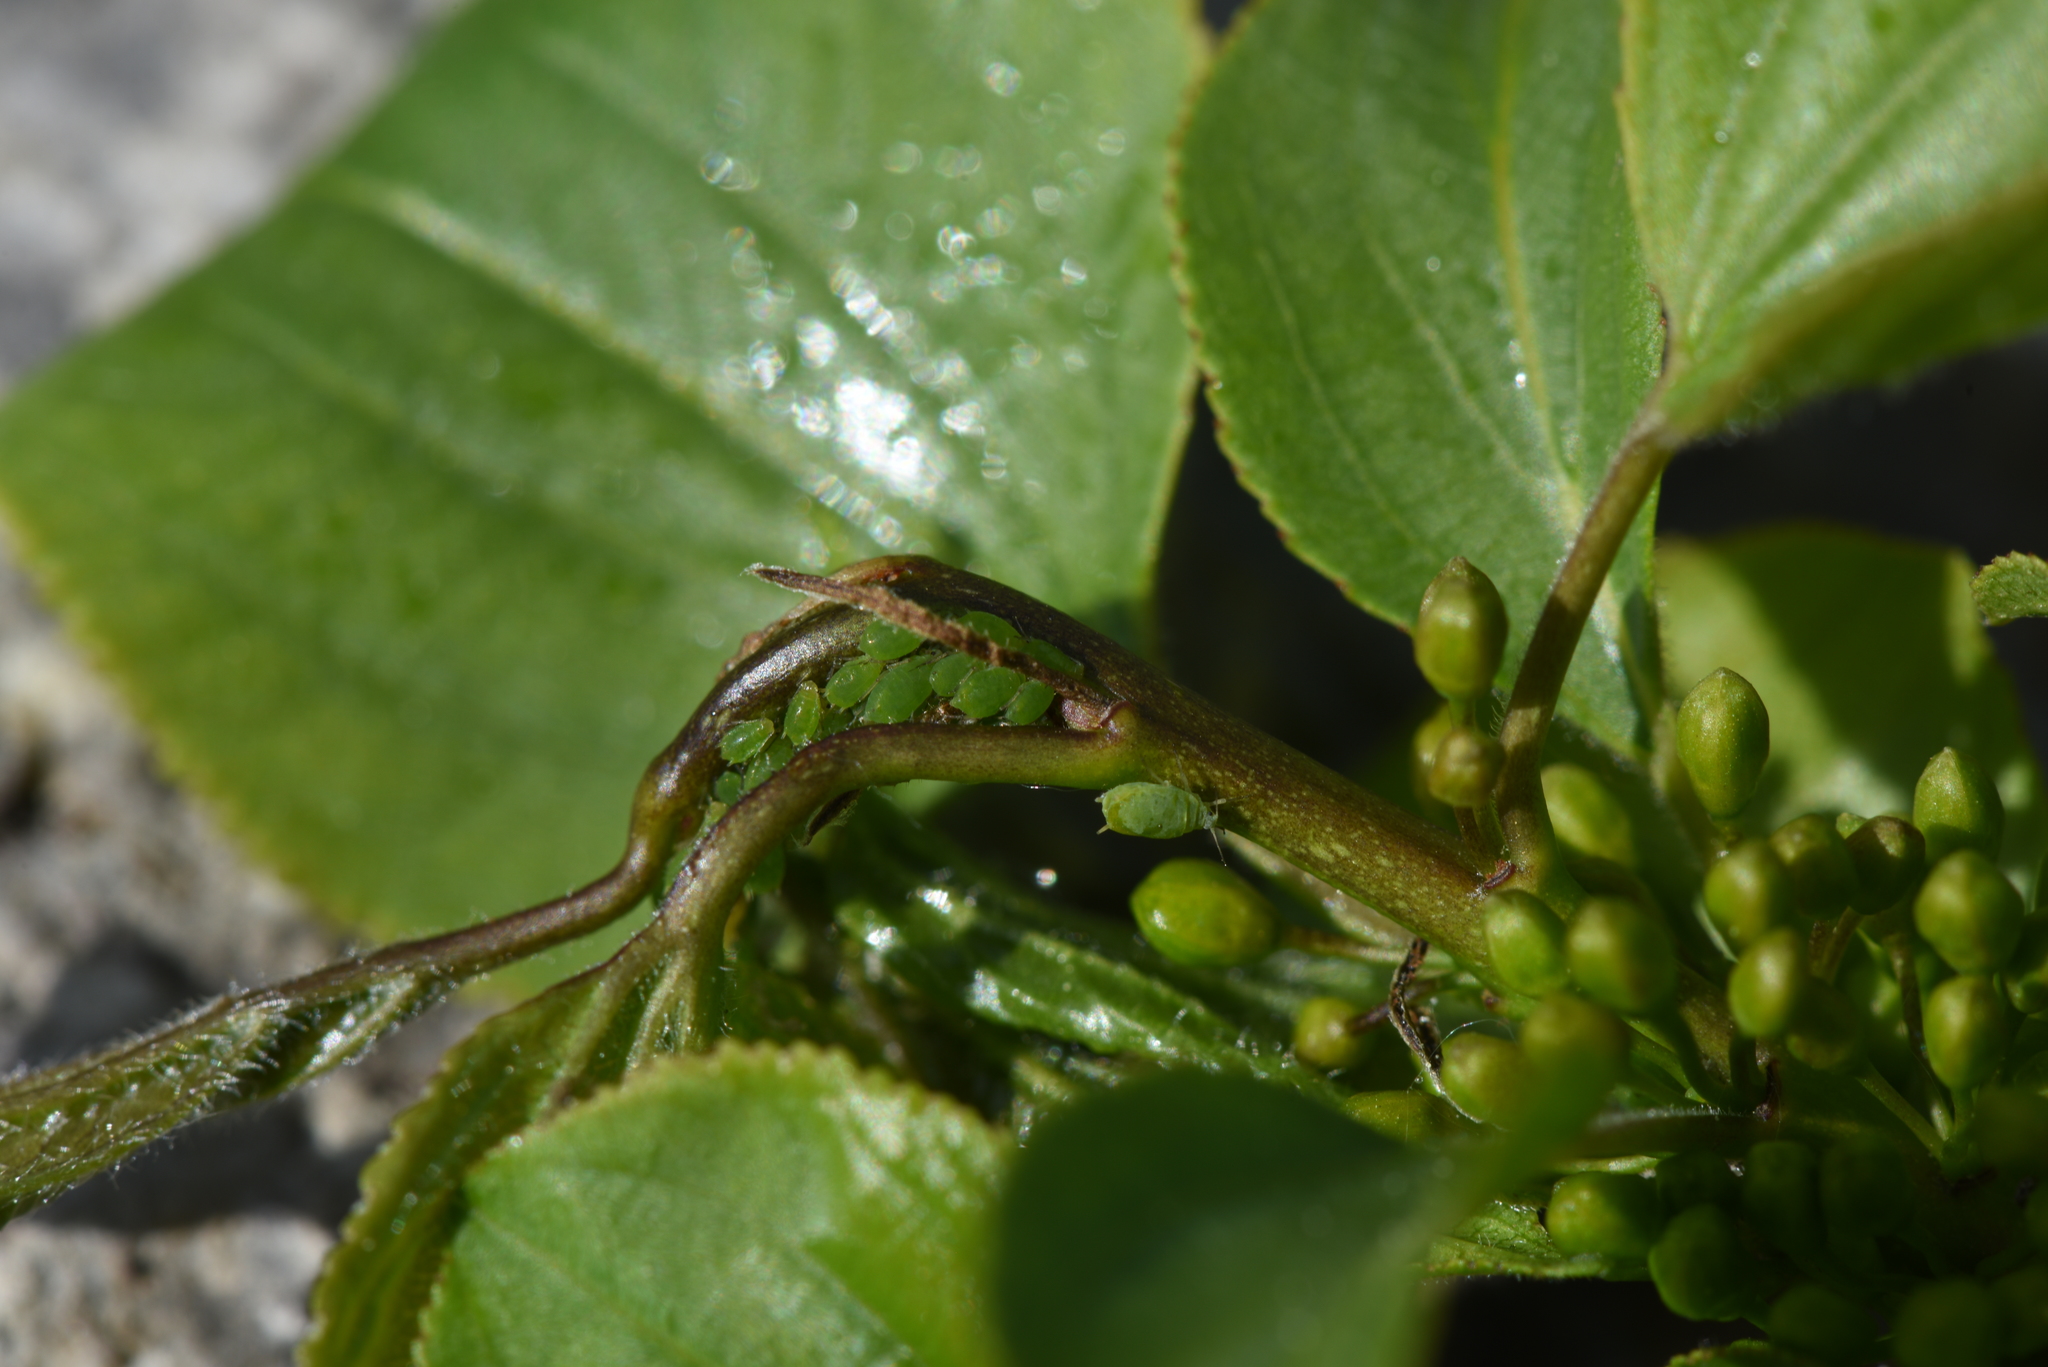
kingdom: Animalia
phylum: Arthropoda
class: Insecta
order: Hemiptera
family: Aphididae
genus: Aphis
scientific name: Aphis nasturtii
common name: Buckthorn aphid
